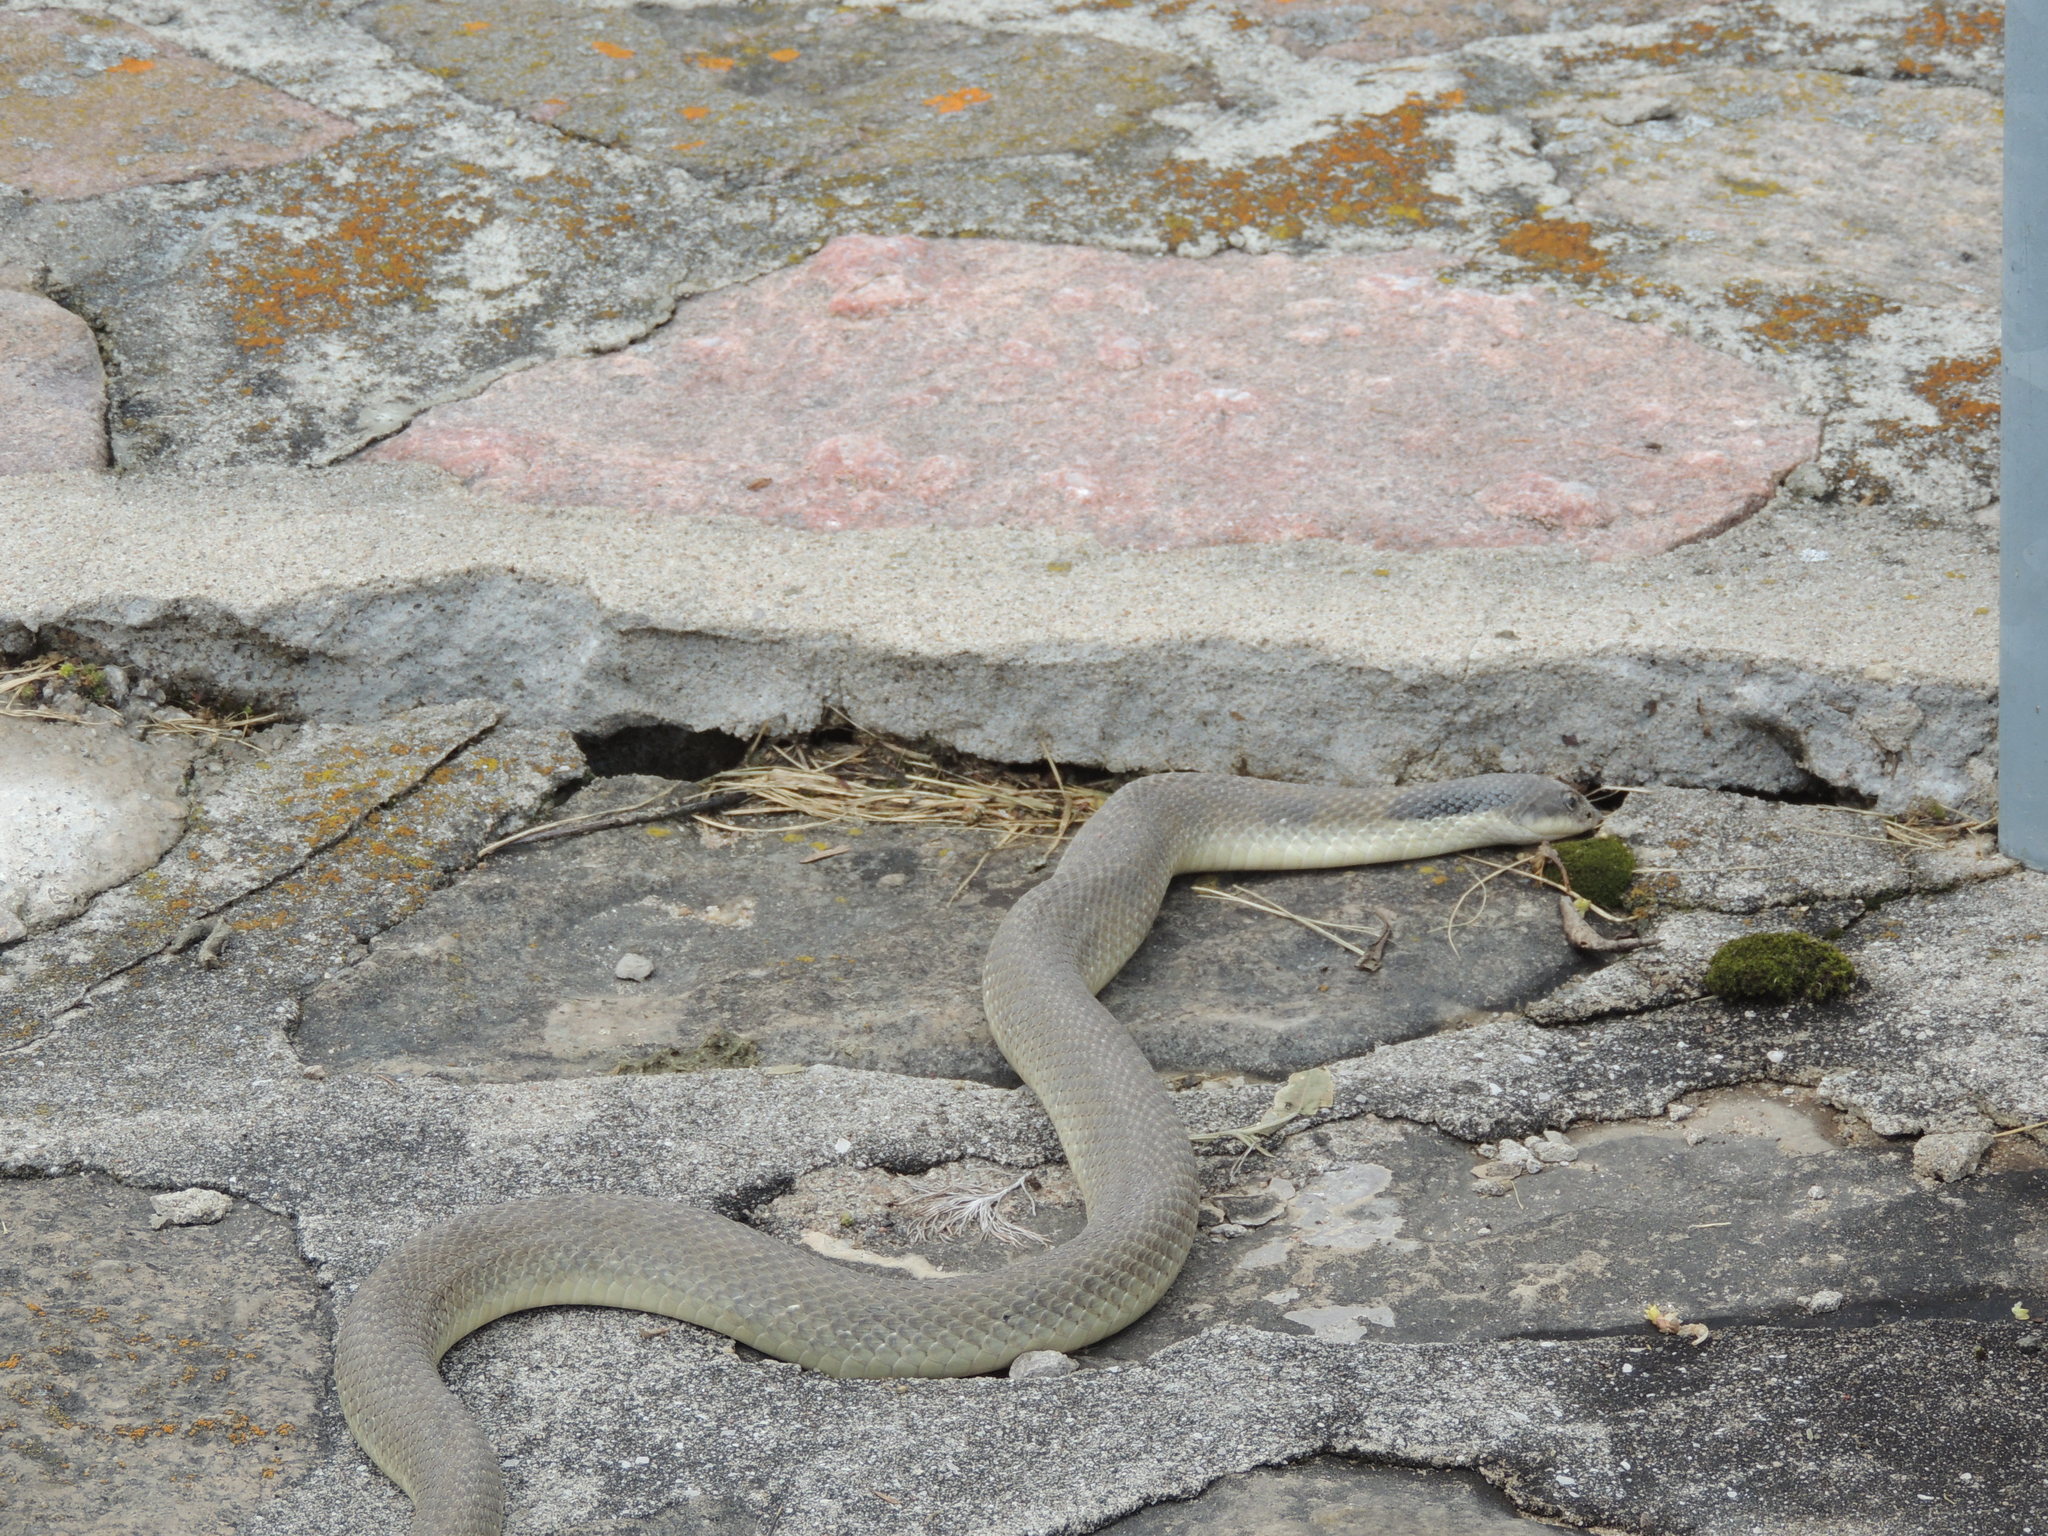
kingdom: Animalia
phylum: Chordata
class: Squamata
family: Colubridae
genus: Heterodon
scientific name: Heterodon platirhinos
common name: Eastern hognose snake
